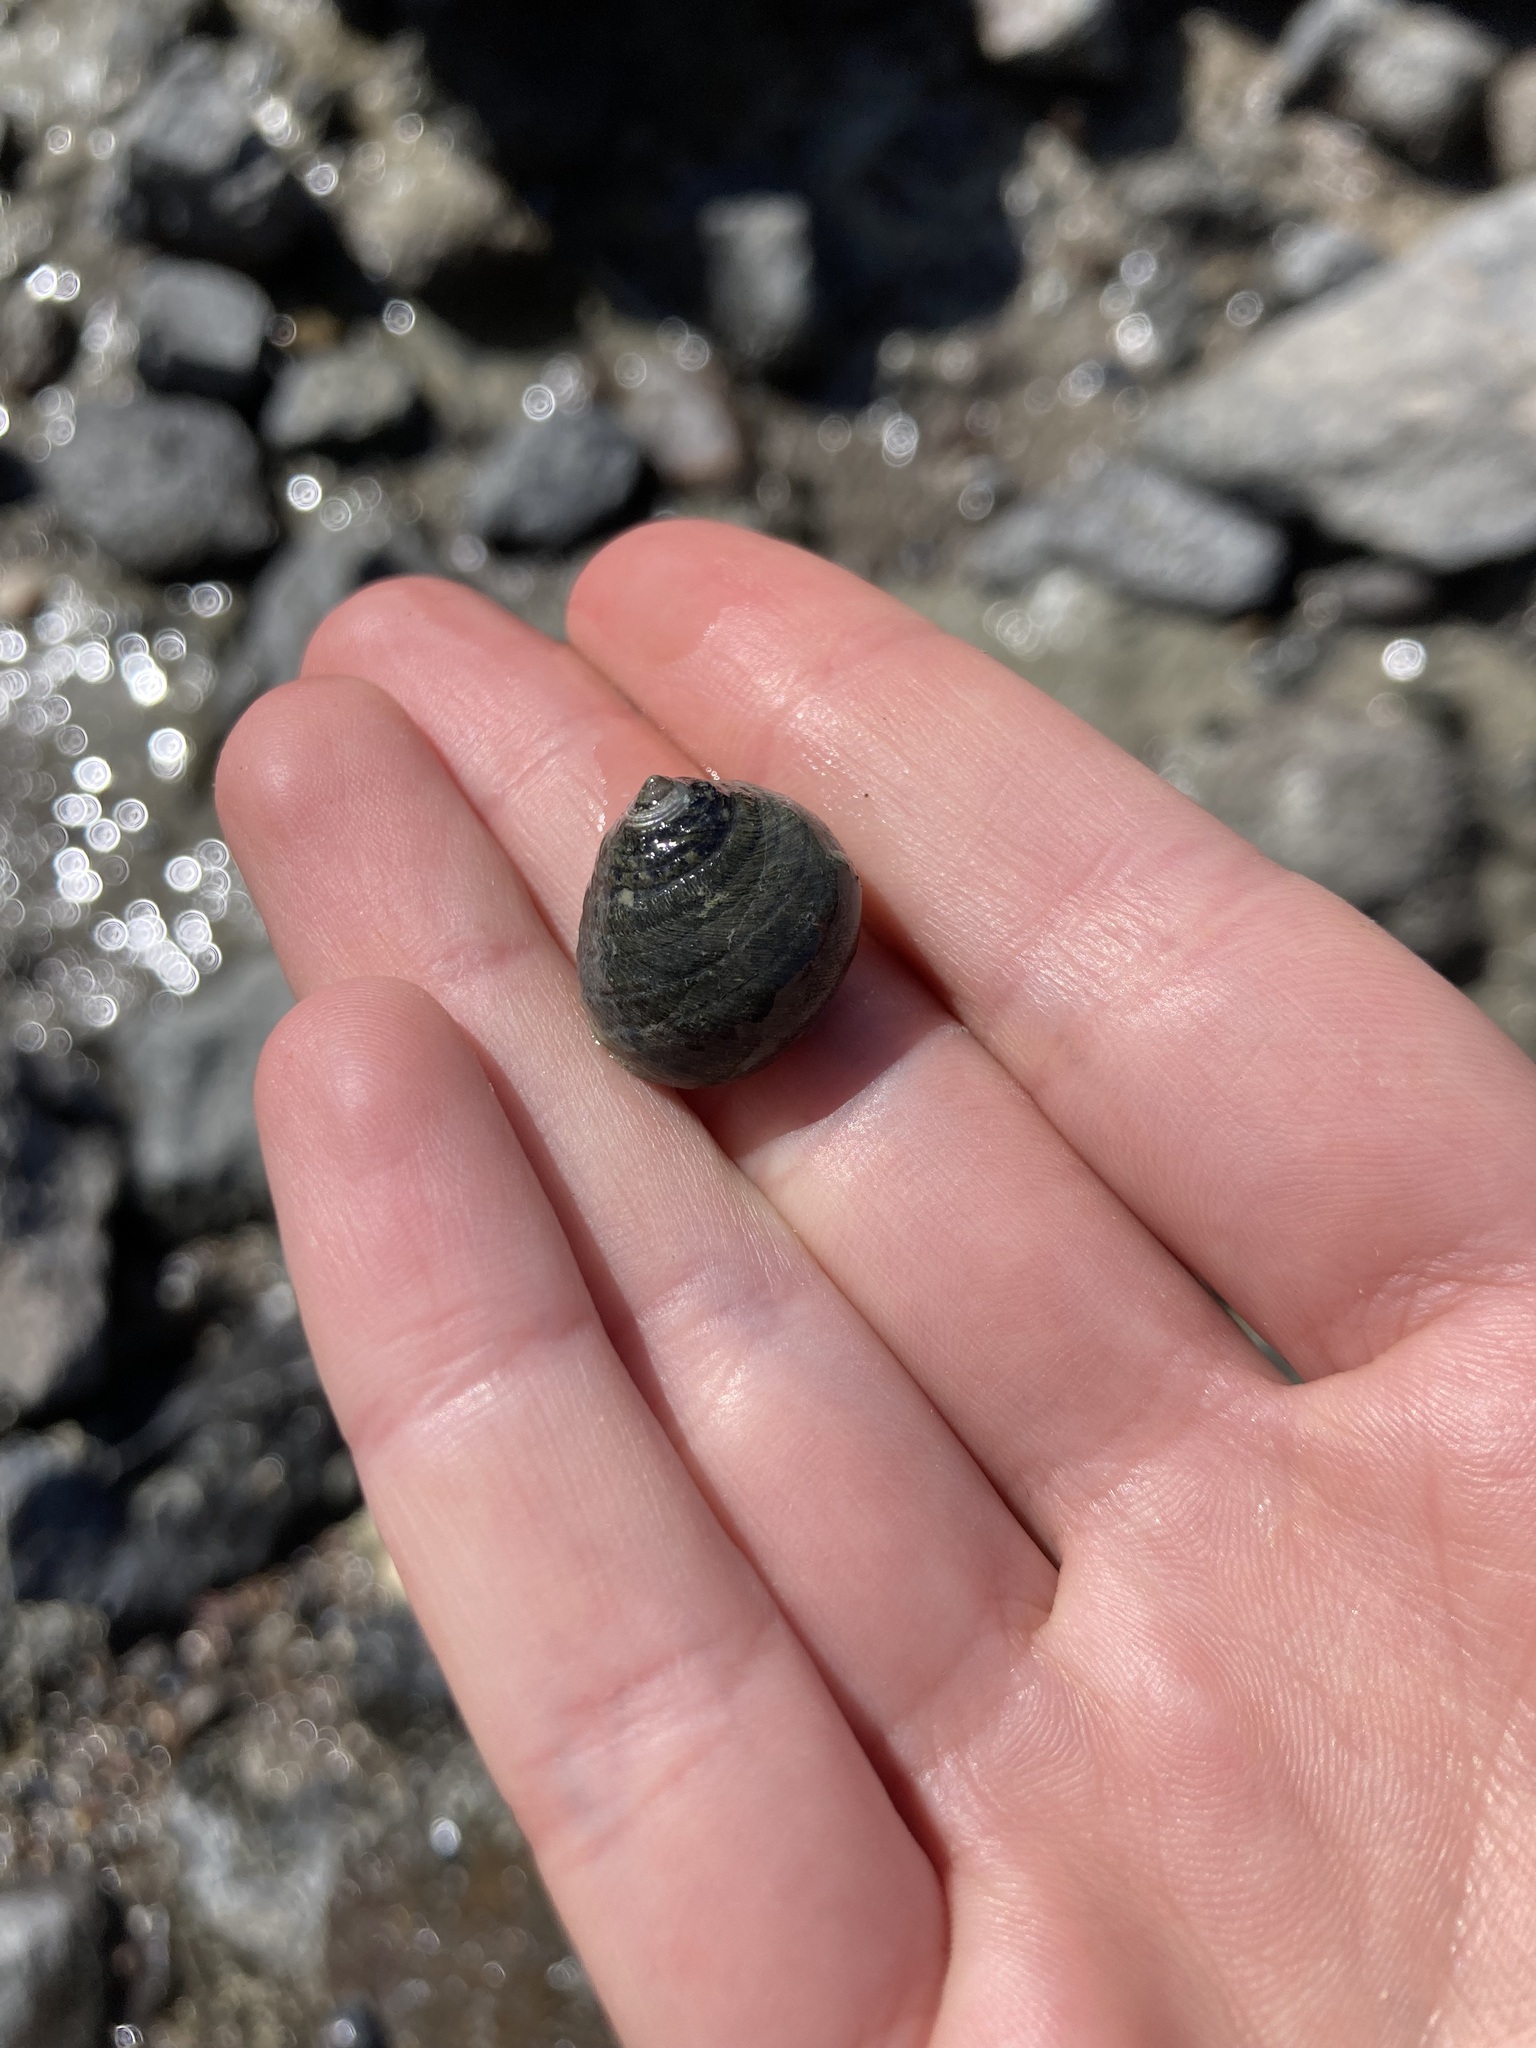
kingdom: Animalia
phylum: Mollusca
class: Gastropoda
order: Trochida
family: Trochidae
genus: Diloma
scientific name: Diloma aethiops
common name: Scorched monodont
